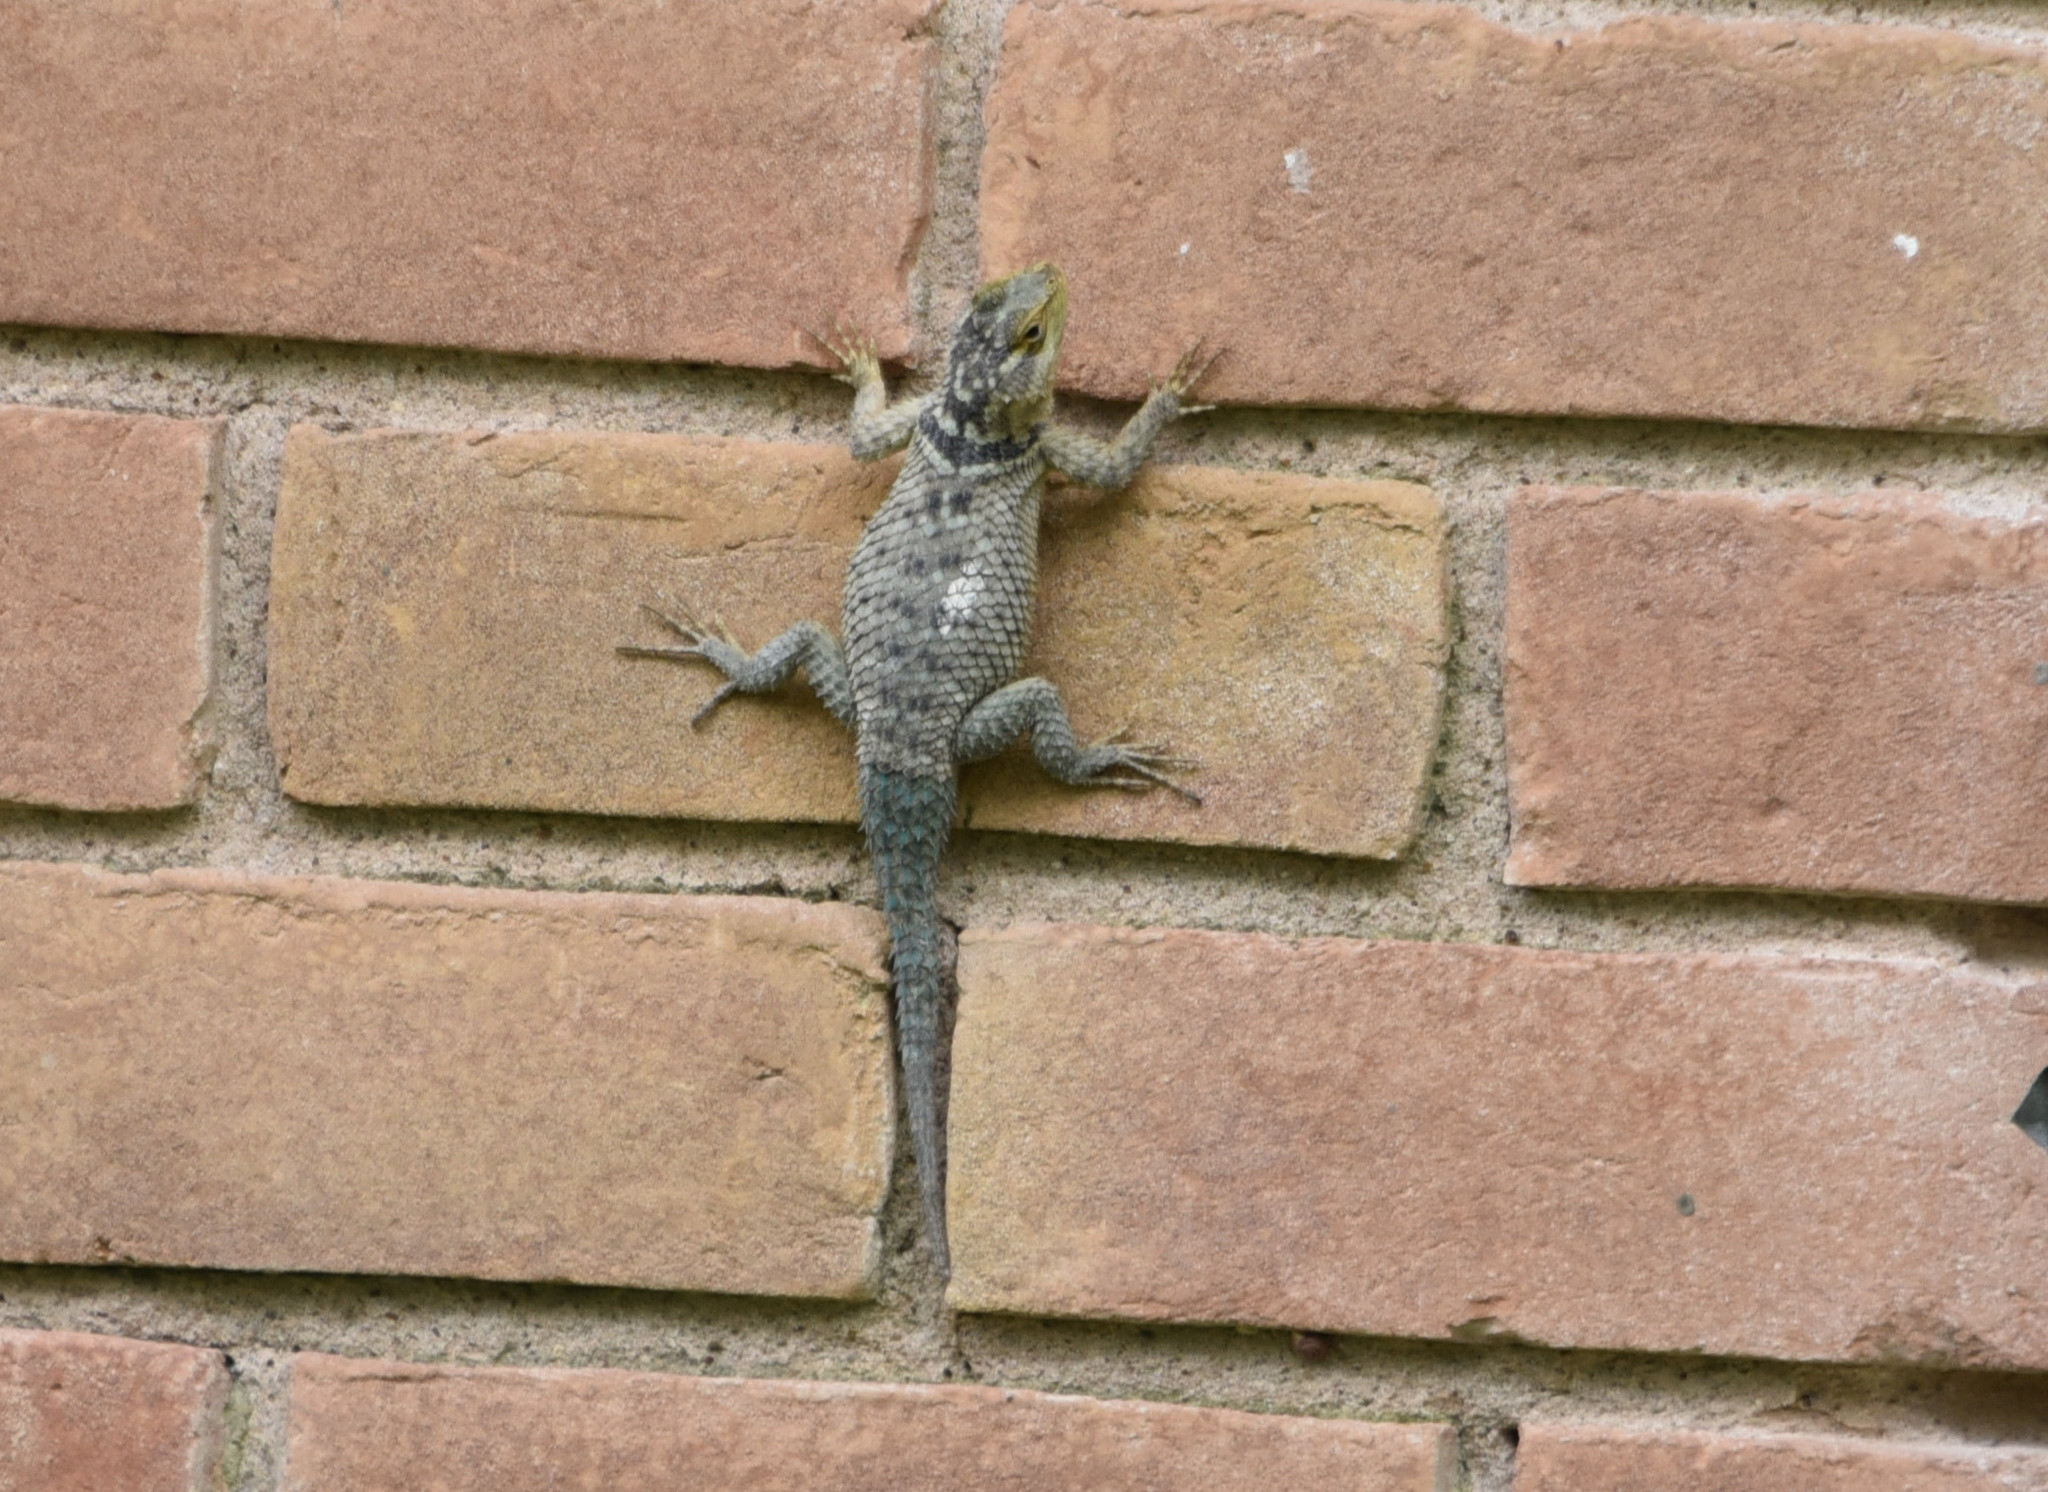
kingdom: Animalia
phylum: Chordata
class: Squamata
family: Phrynosomatidae
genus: Sceloporus
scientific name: Sceloporus cyanogenys
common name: Blue spiny lizard
